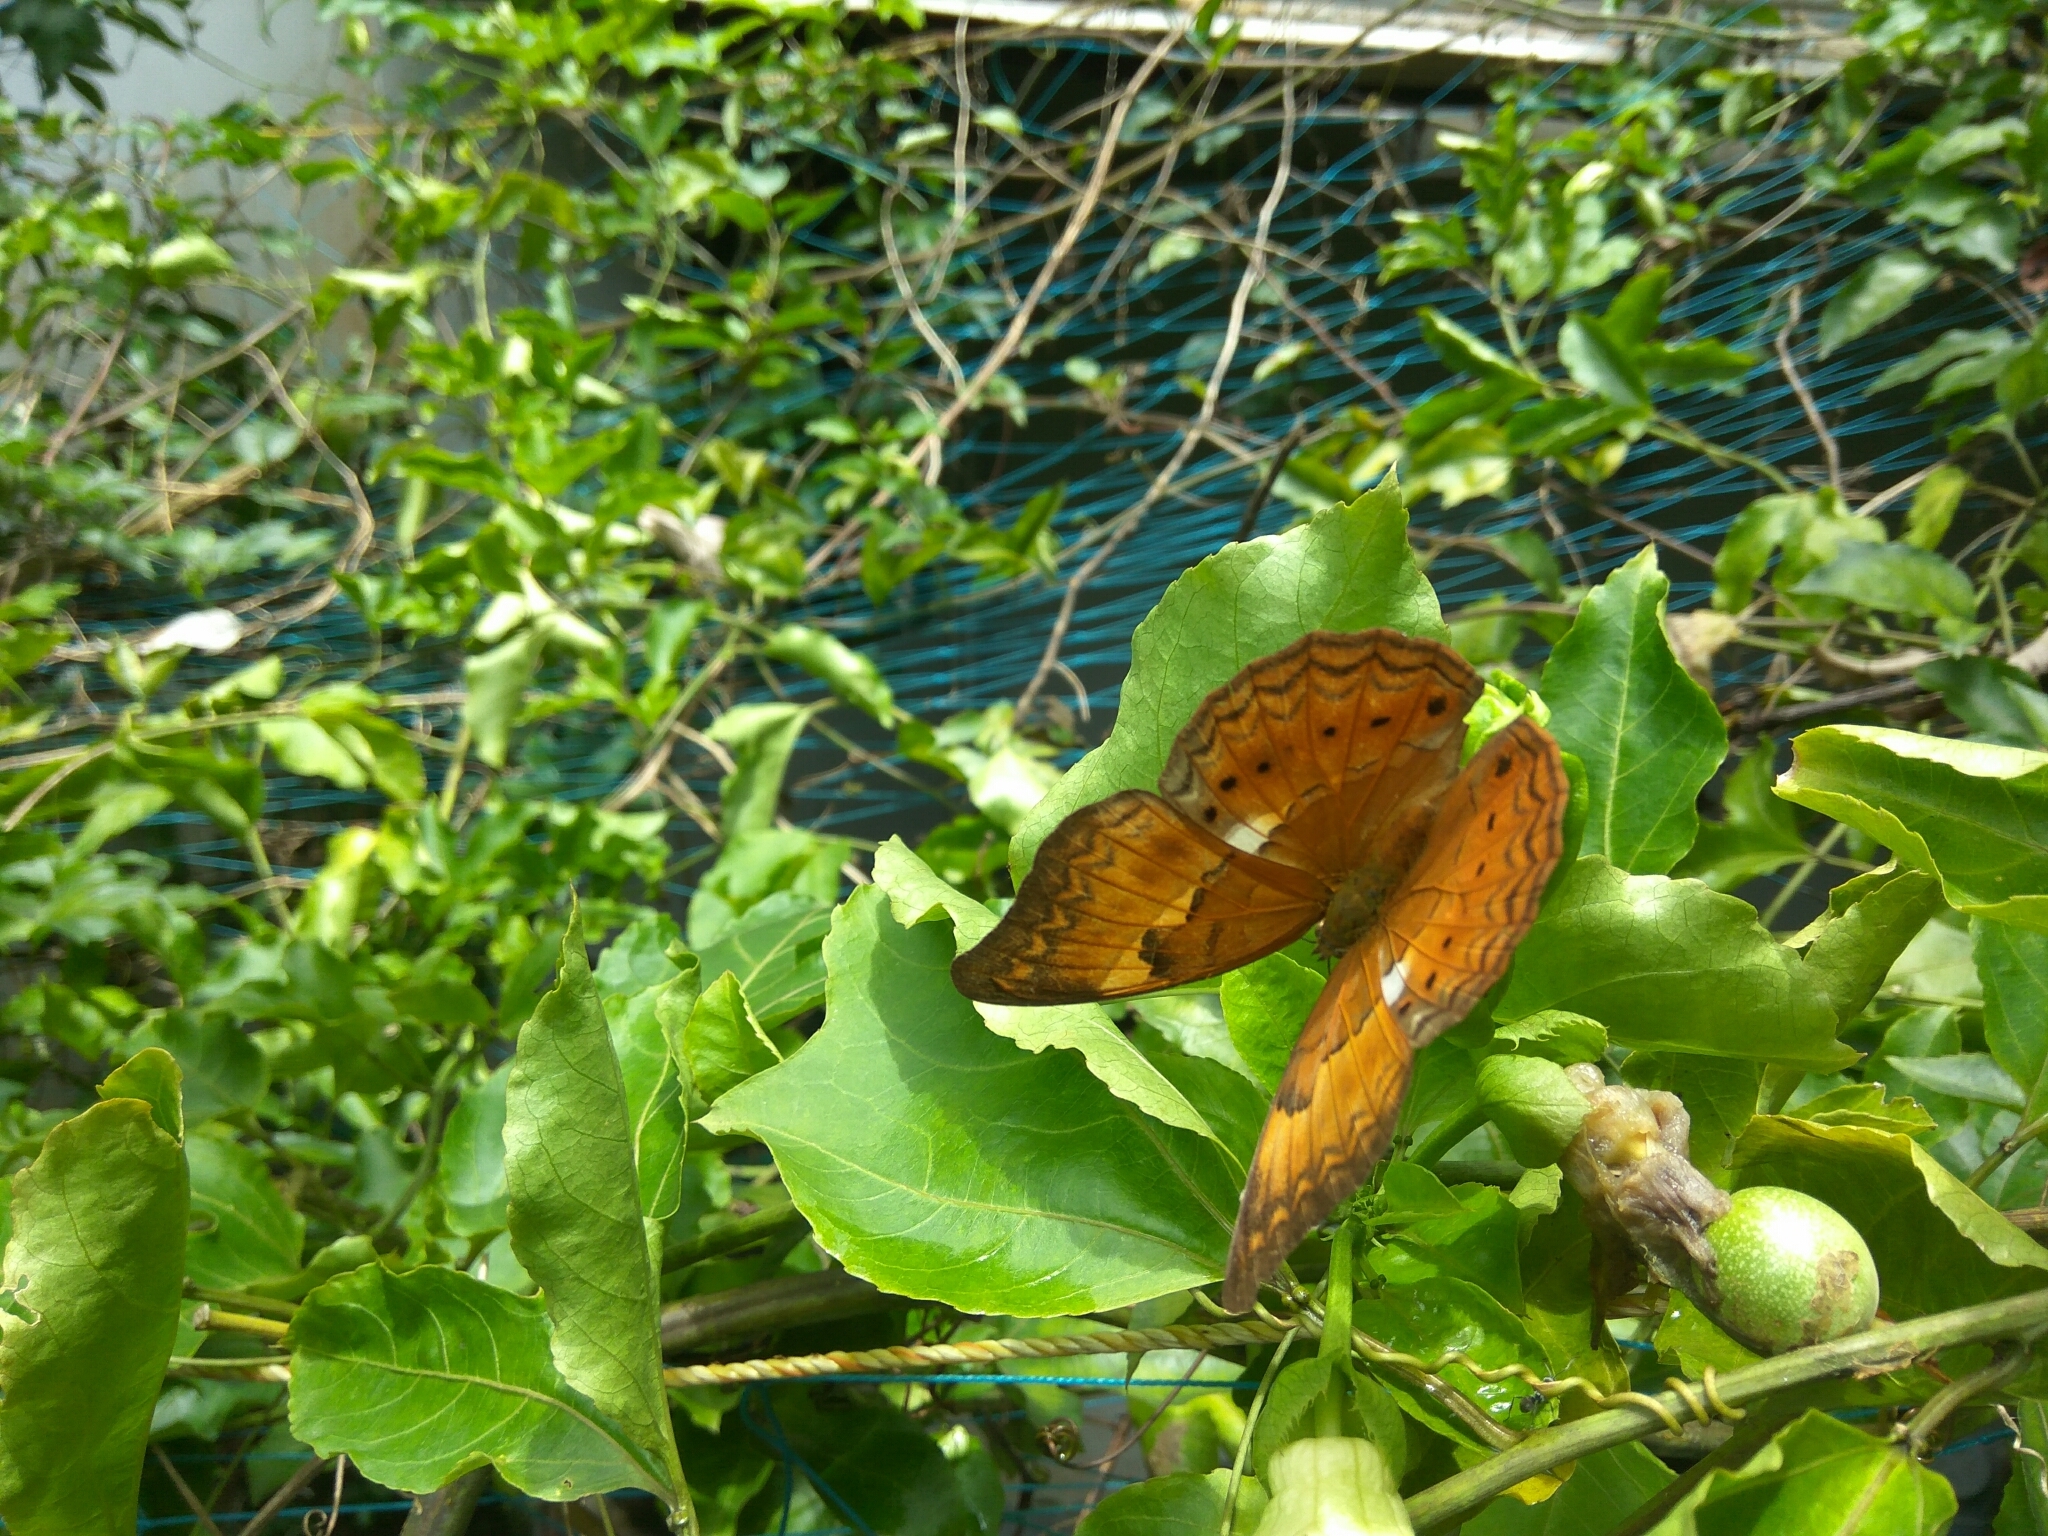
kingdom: Animalia
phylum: Arthropoda
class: Insecta
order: Lepidoptera
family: Nymphalidae
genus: Cirrochroa
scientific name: Cirrochroa thais
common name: Tamil yeoman
